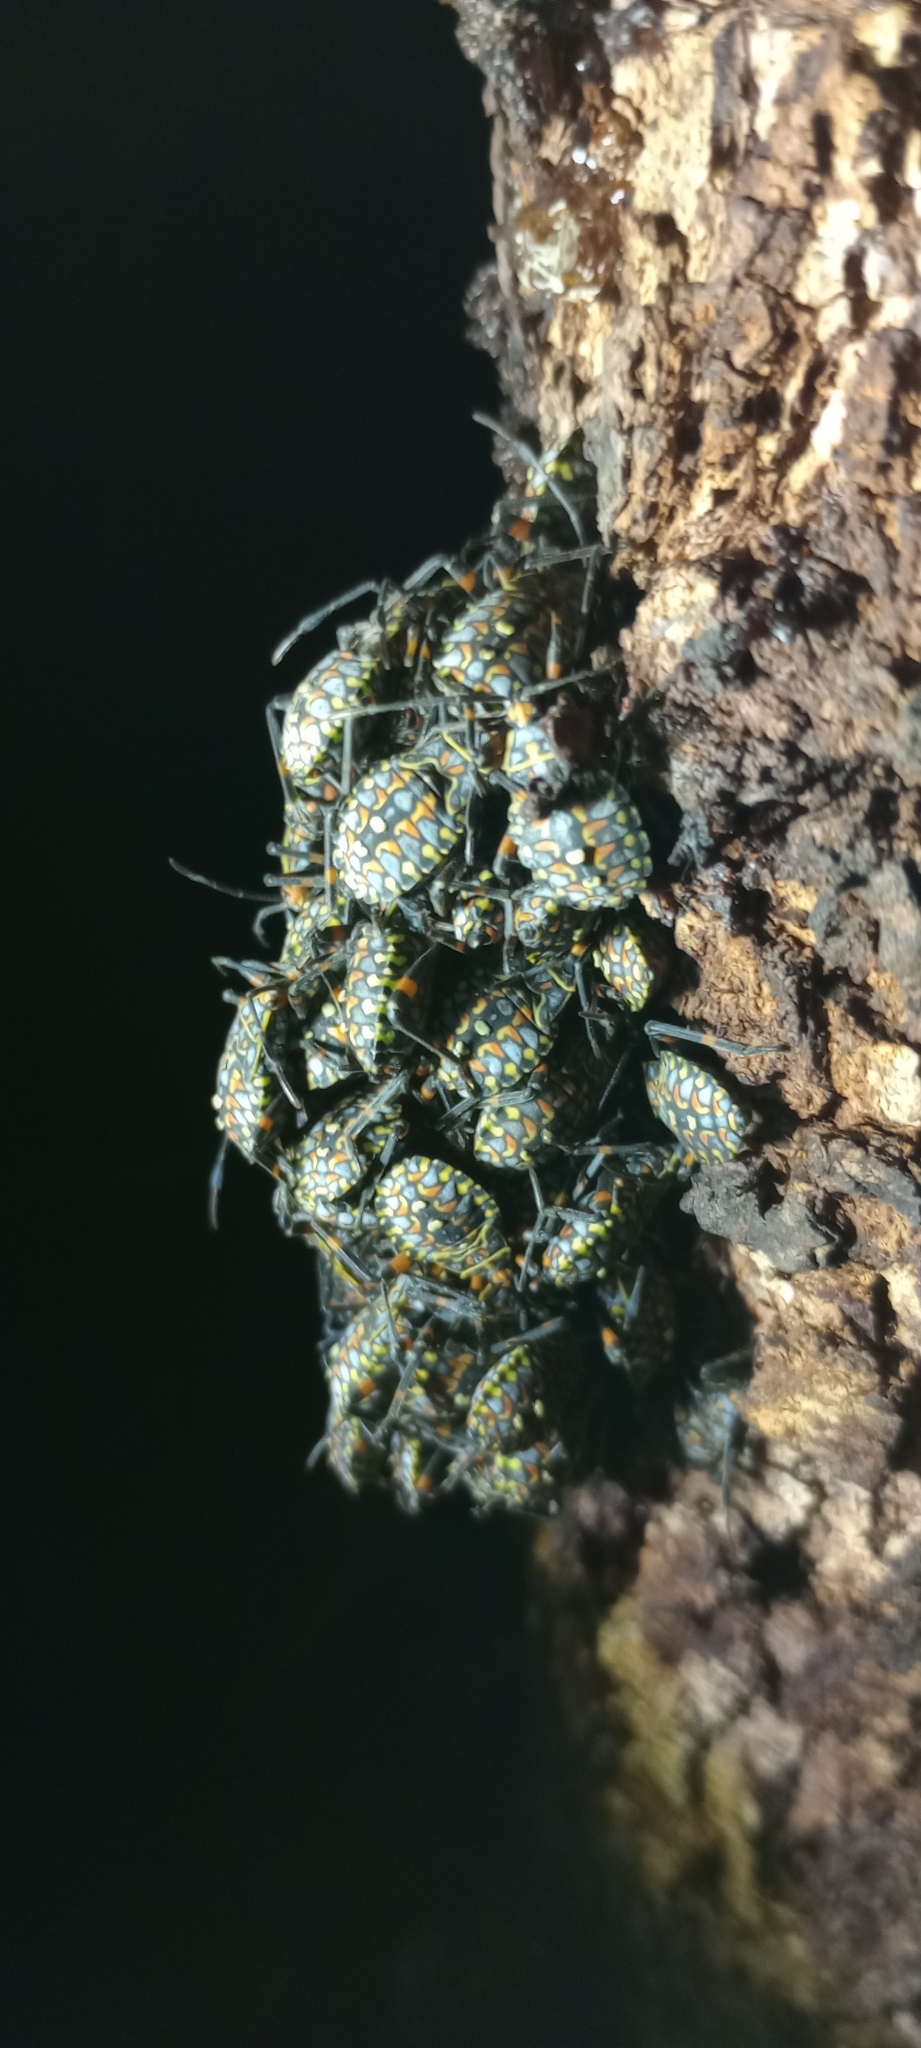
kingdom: Animalia
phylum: Arthropoda
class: Insecta
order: Hemiptera
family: Coreidae
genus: Pachylis
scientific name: Pachylis argentinus
